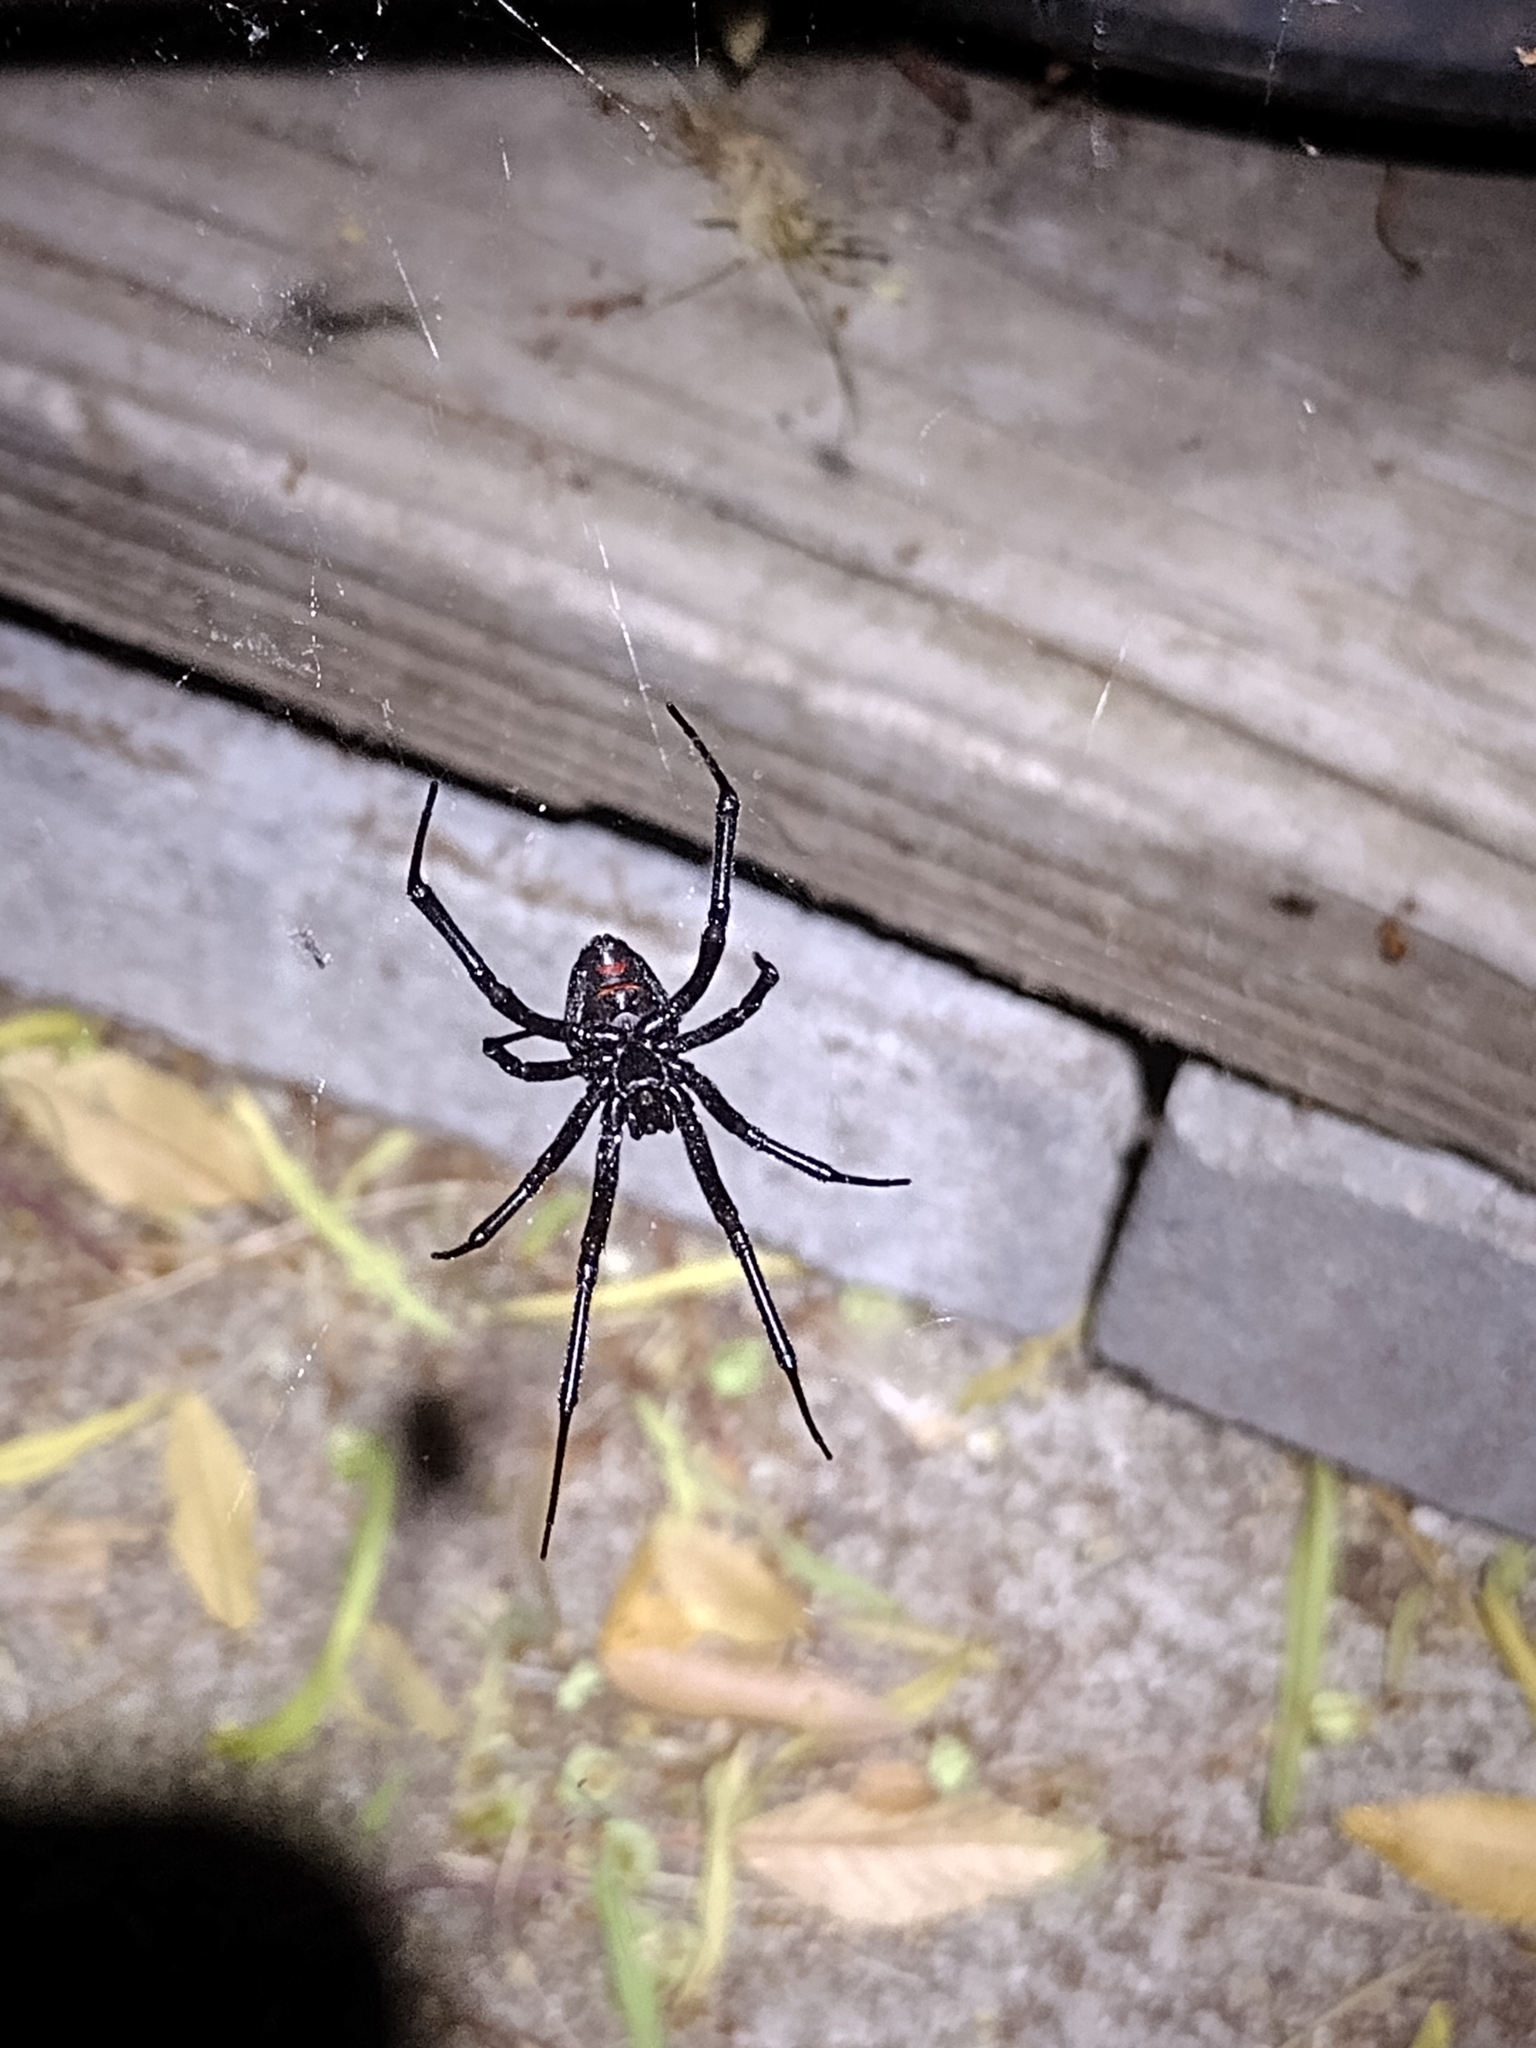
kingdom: Animalia
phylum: Arthropoda
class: Arachnida
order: Araneae
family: Theridiidae
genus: Latrodectus
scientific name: Latrodectus hesperus
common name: Western black widow
